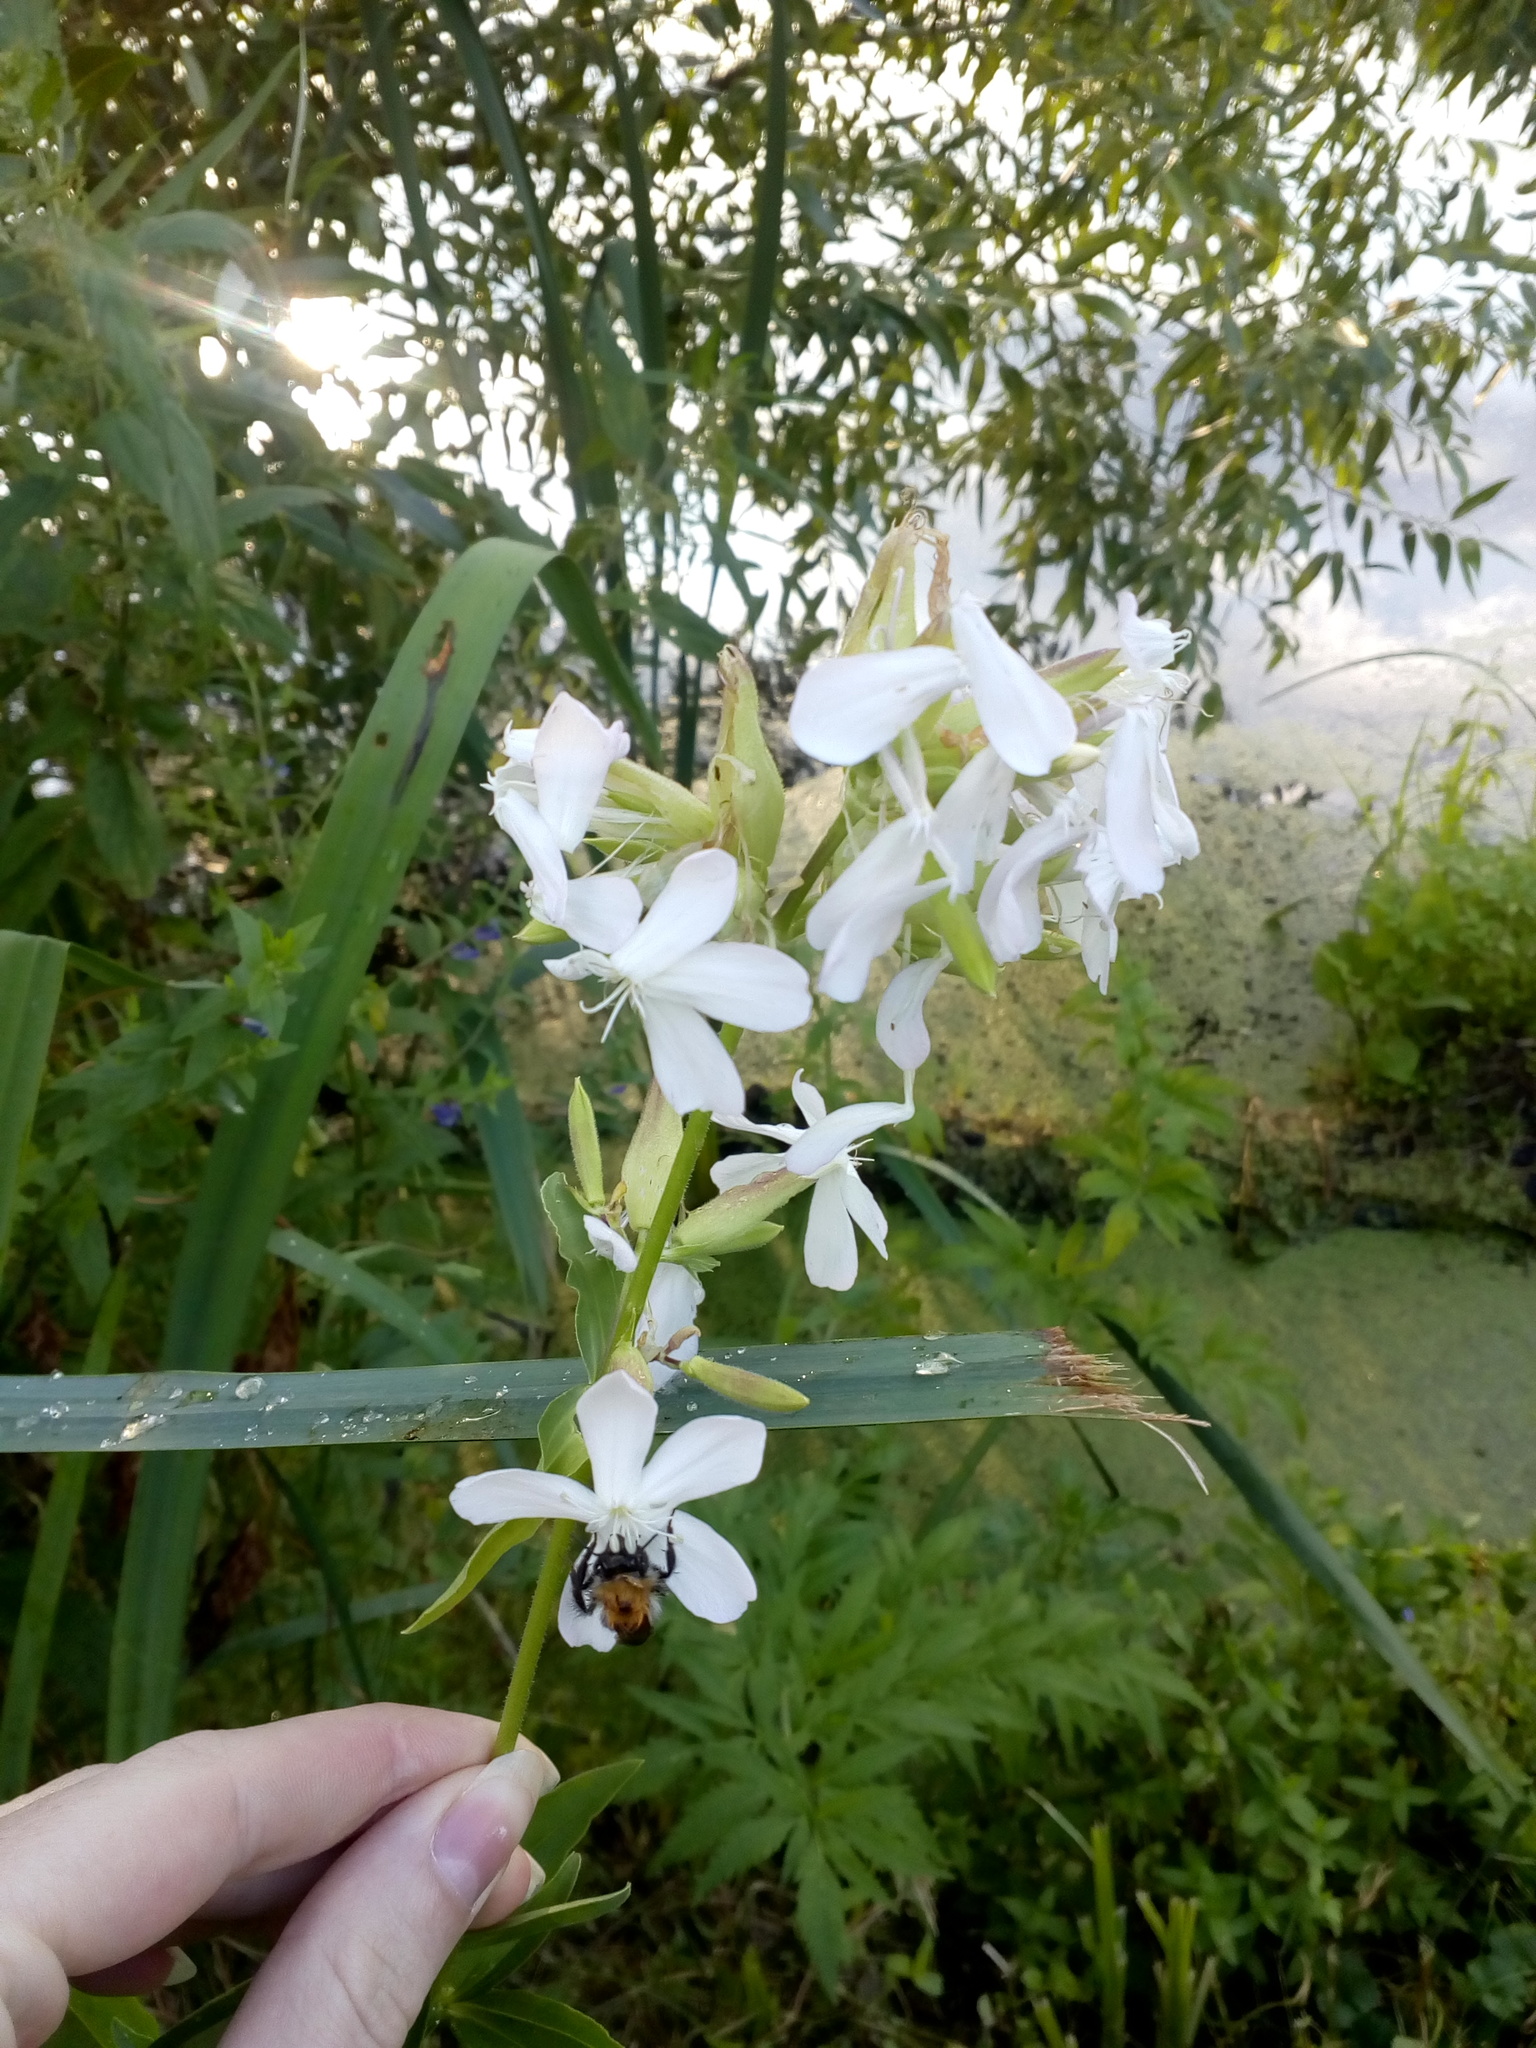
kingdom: Plantae
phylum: Tracheophyta
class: Magnoliopsida
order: Caryophyllales
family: Caryophyllaceae
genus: Saponaria
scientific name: Saponaria officinalis
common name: Soapwort
